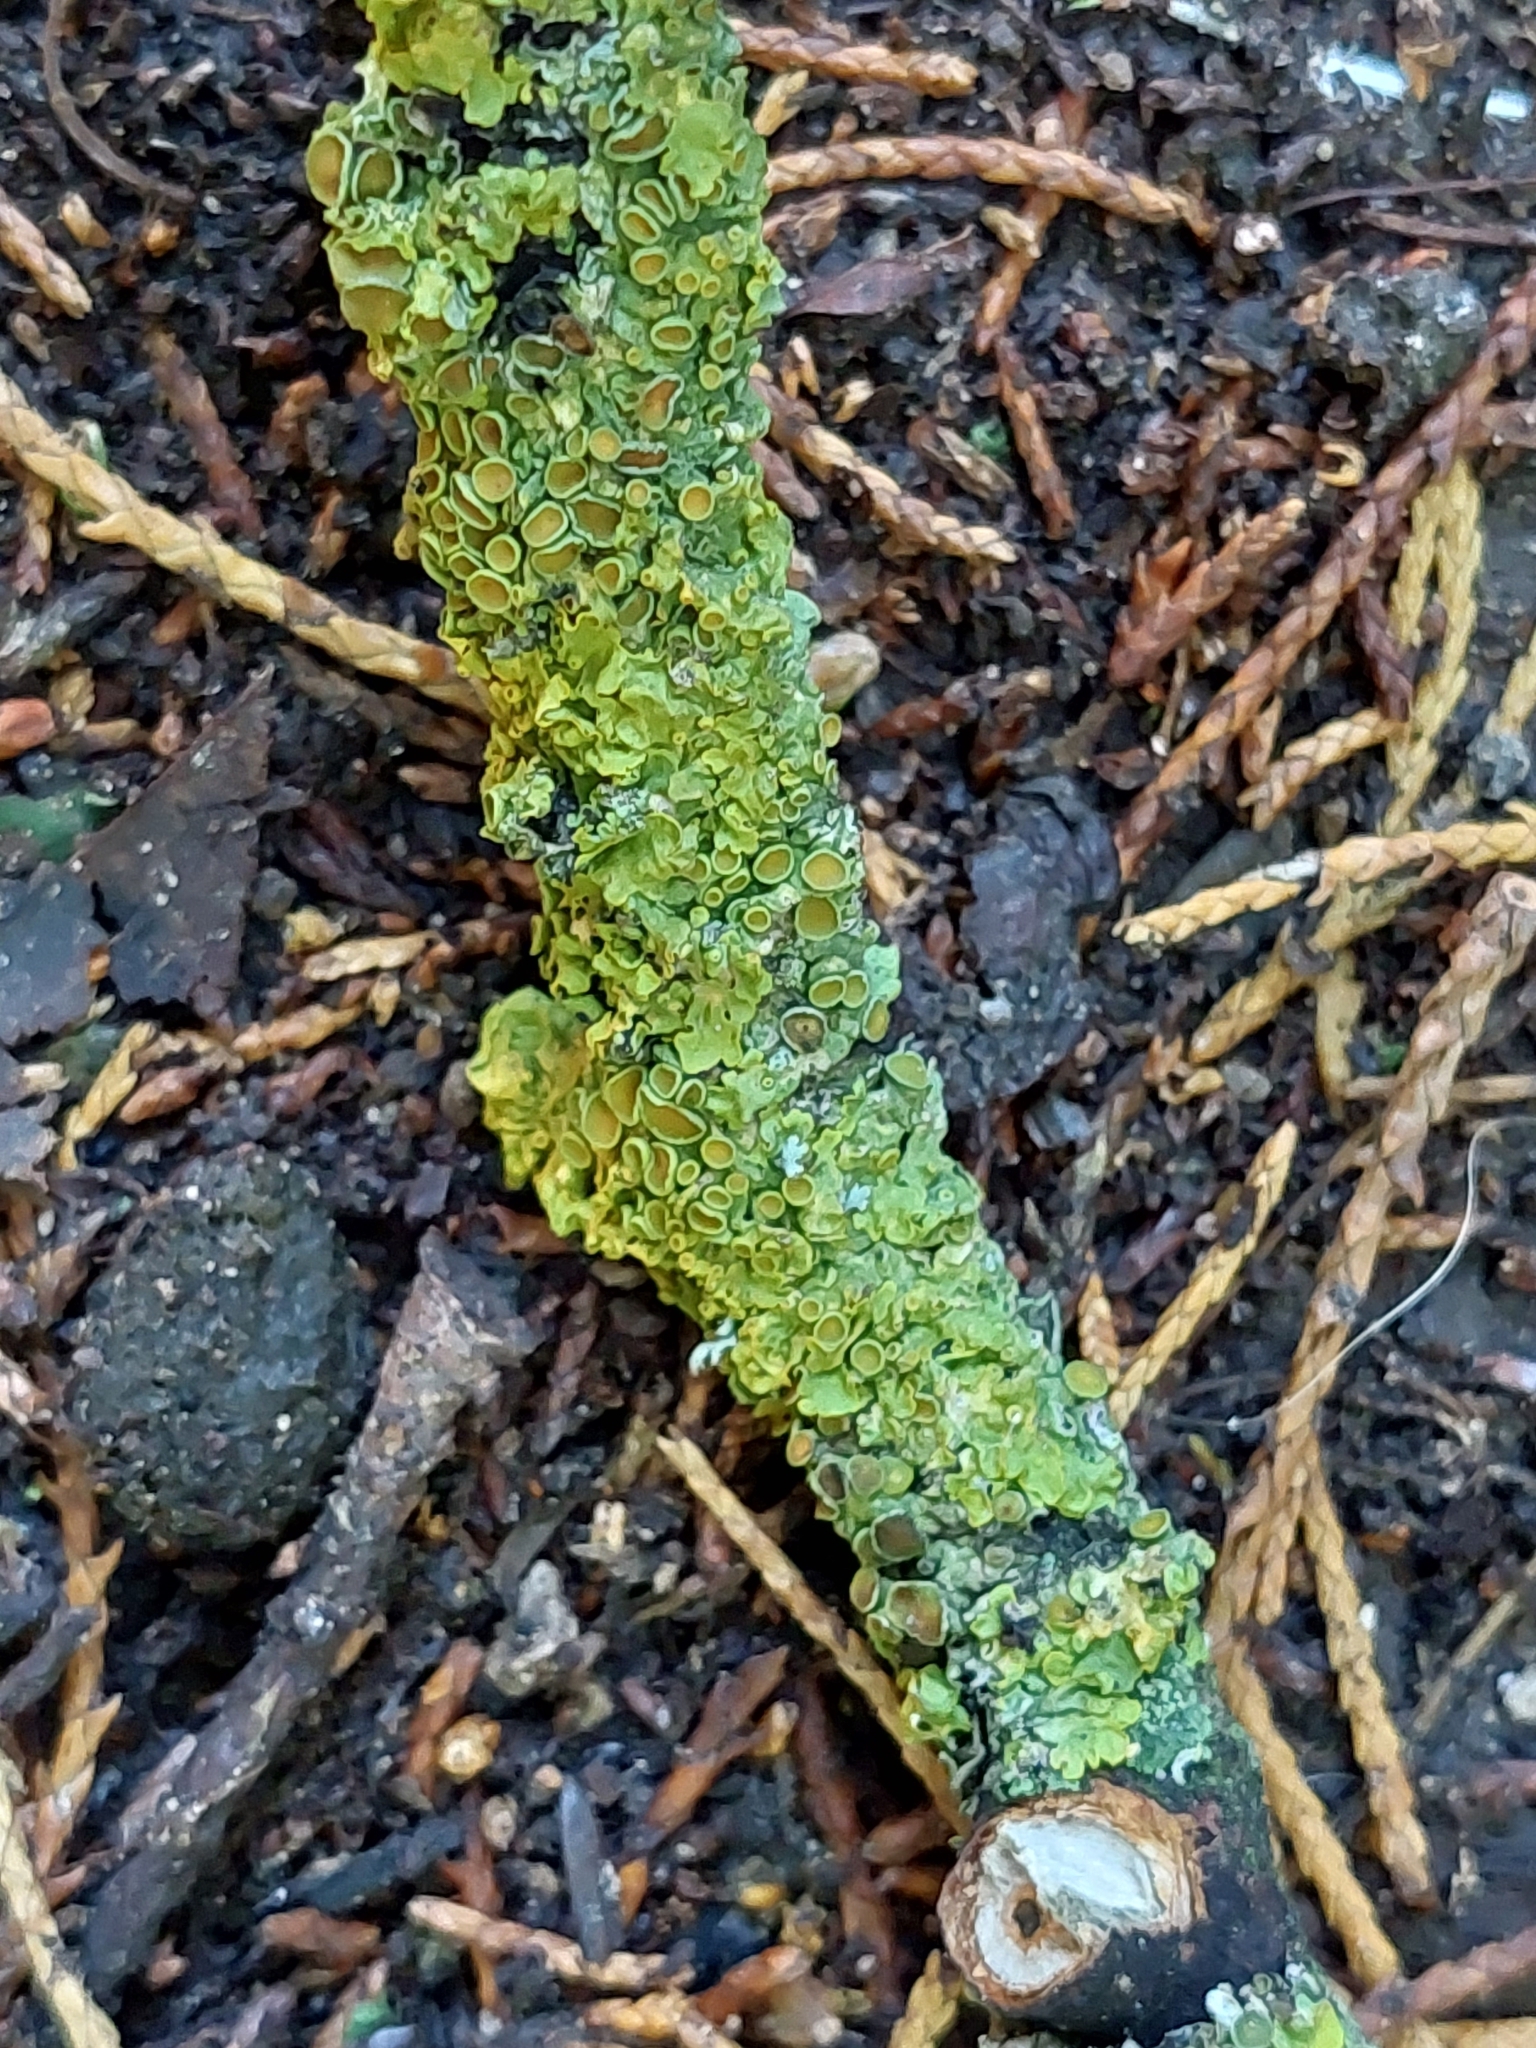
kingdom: Fungi
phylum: Ascomycota
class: Lecanoromycetes
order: Teloschistales
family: Teloschistaceae
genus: Xanthoria
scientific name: Xanthoria parietina
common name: Common orange lichen
